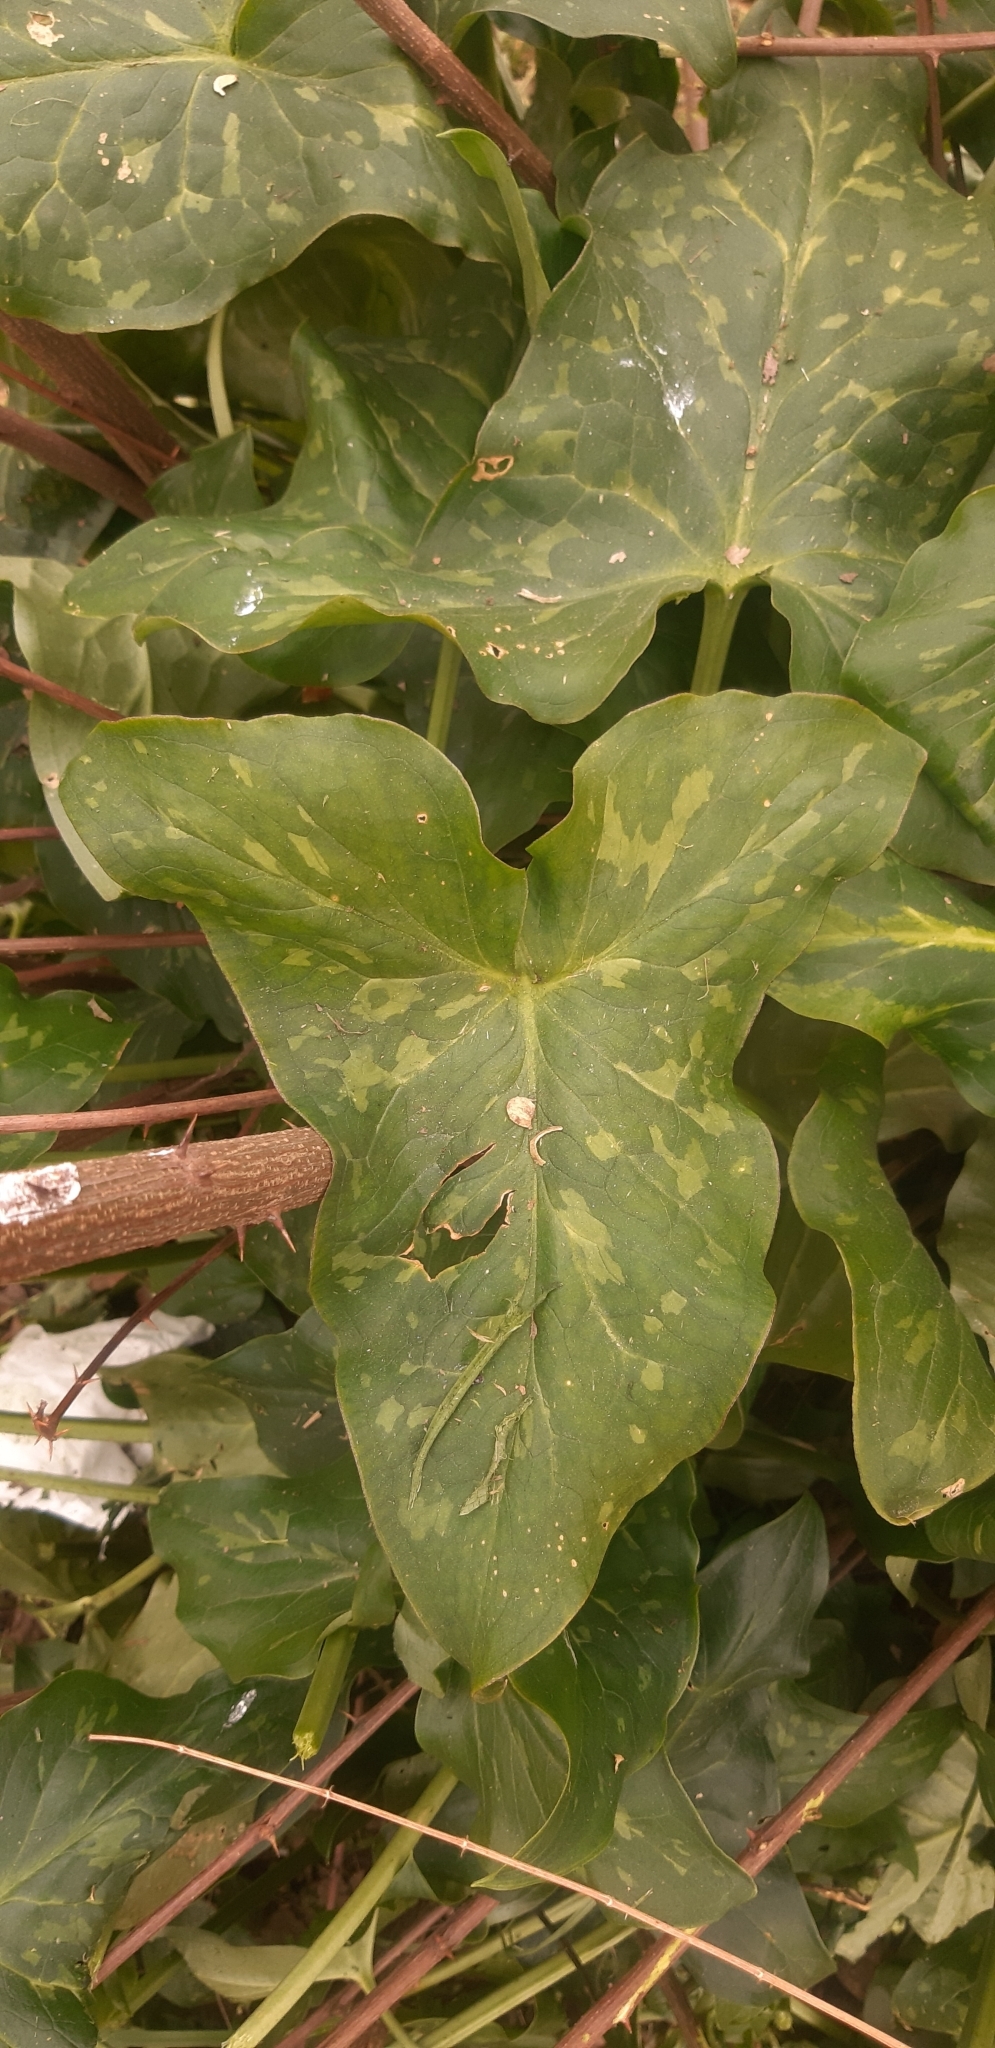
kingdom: Plantae
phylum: Tracheophyta
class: Liliopsida
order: Alismatales
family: Araceae
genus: Arum
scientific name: Arum italicum
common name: Italian lords-and-ladies
